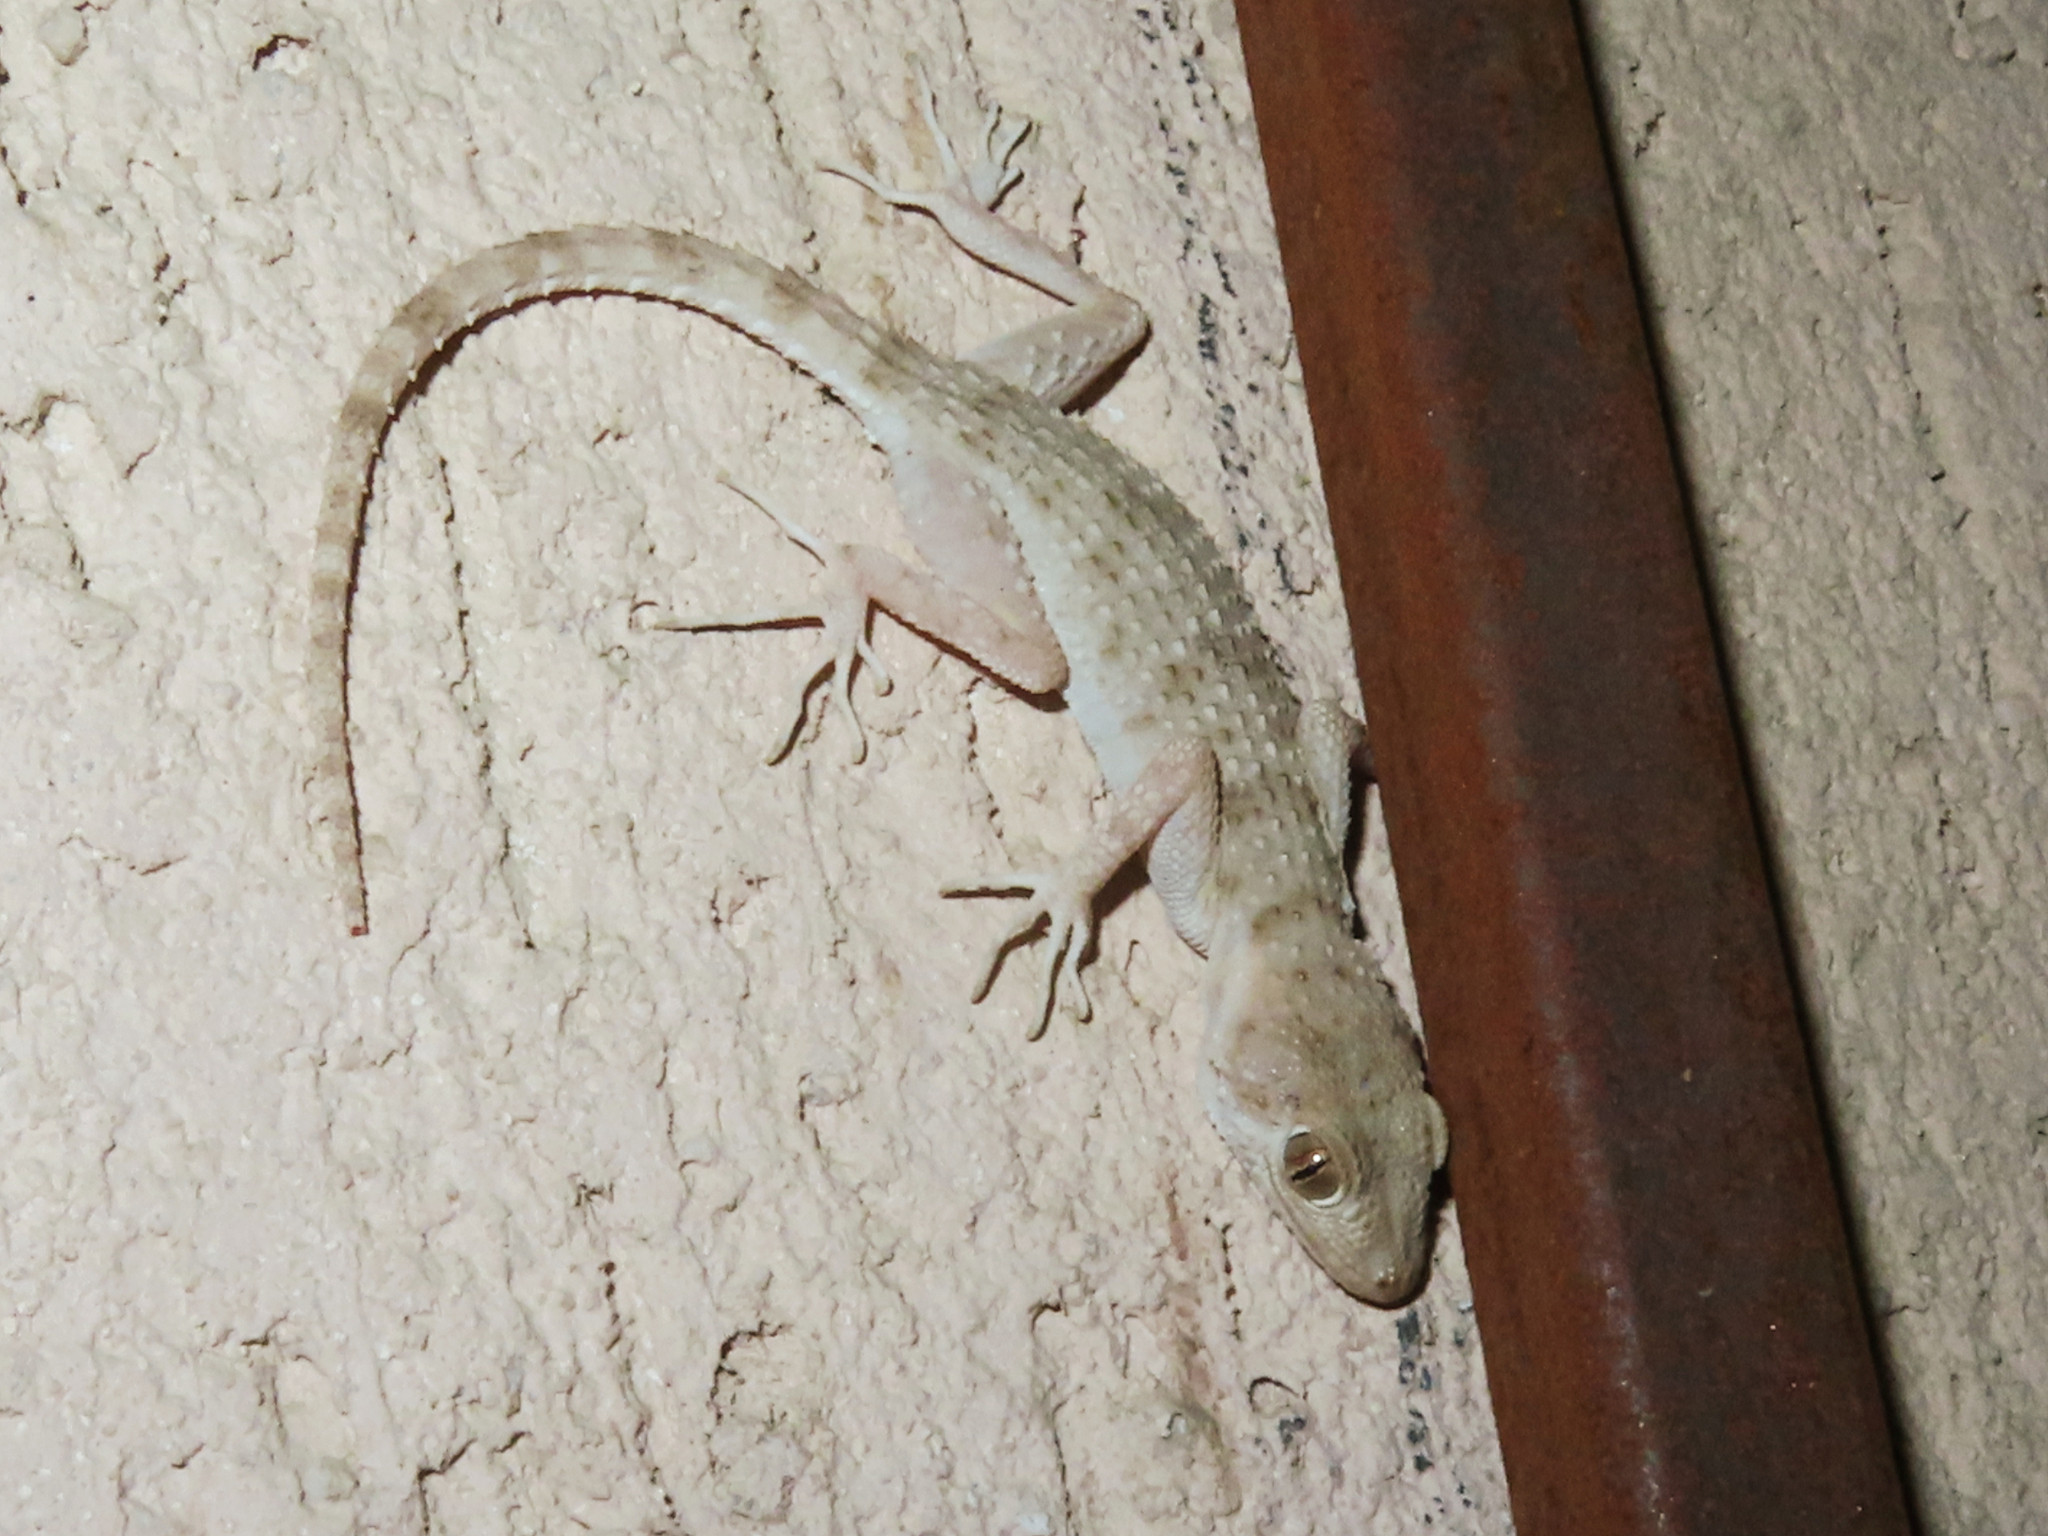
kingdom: Animalia
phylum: Chordata
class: Squamata
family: Gekkonidae
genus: Tenuidactylus
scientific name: Tenuidactylus caspius
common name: Caspian bent-toed gecko
